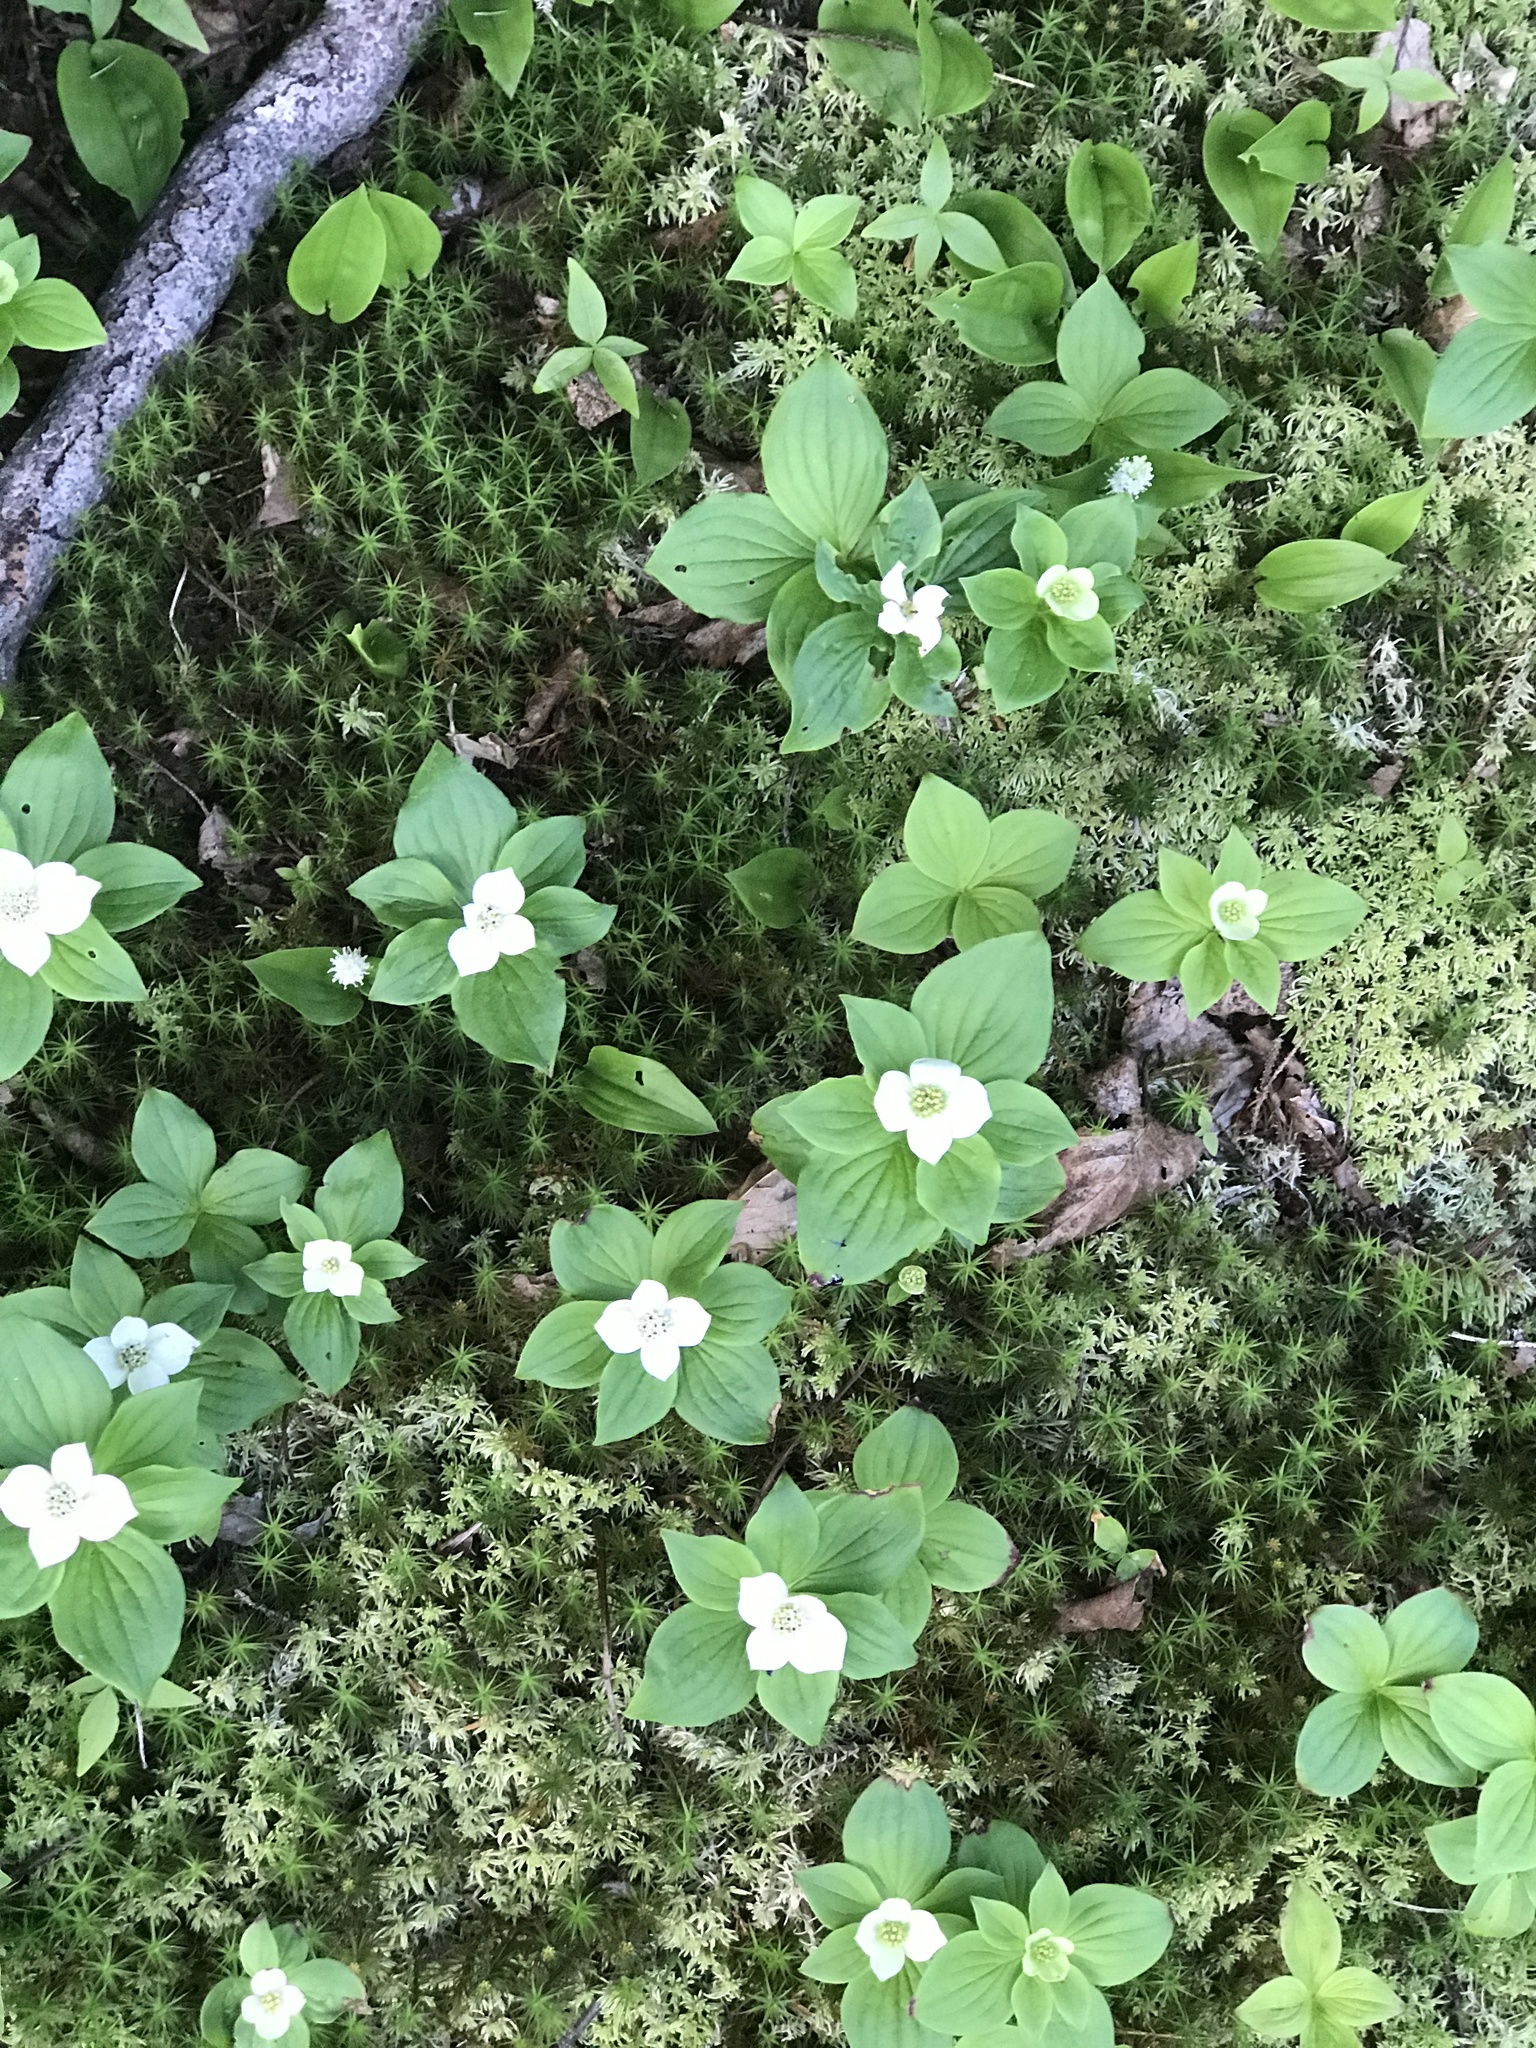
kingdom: Plantae
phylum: Tracheophyta
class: Magnoliopsida
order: Cornales
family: Cornaceae
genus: Cornus
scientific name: Cornus canadensis
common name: Creeping dogwood
